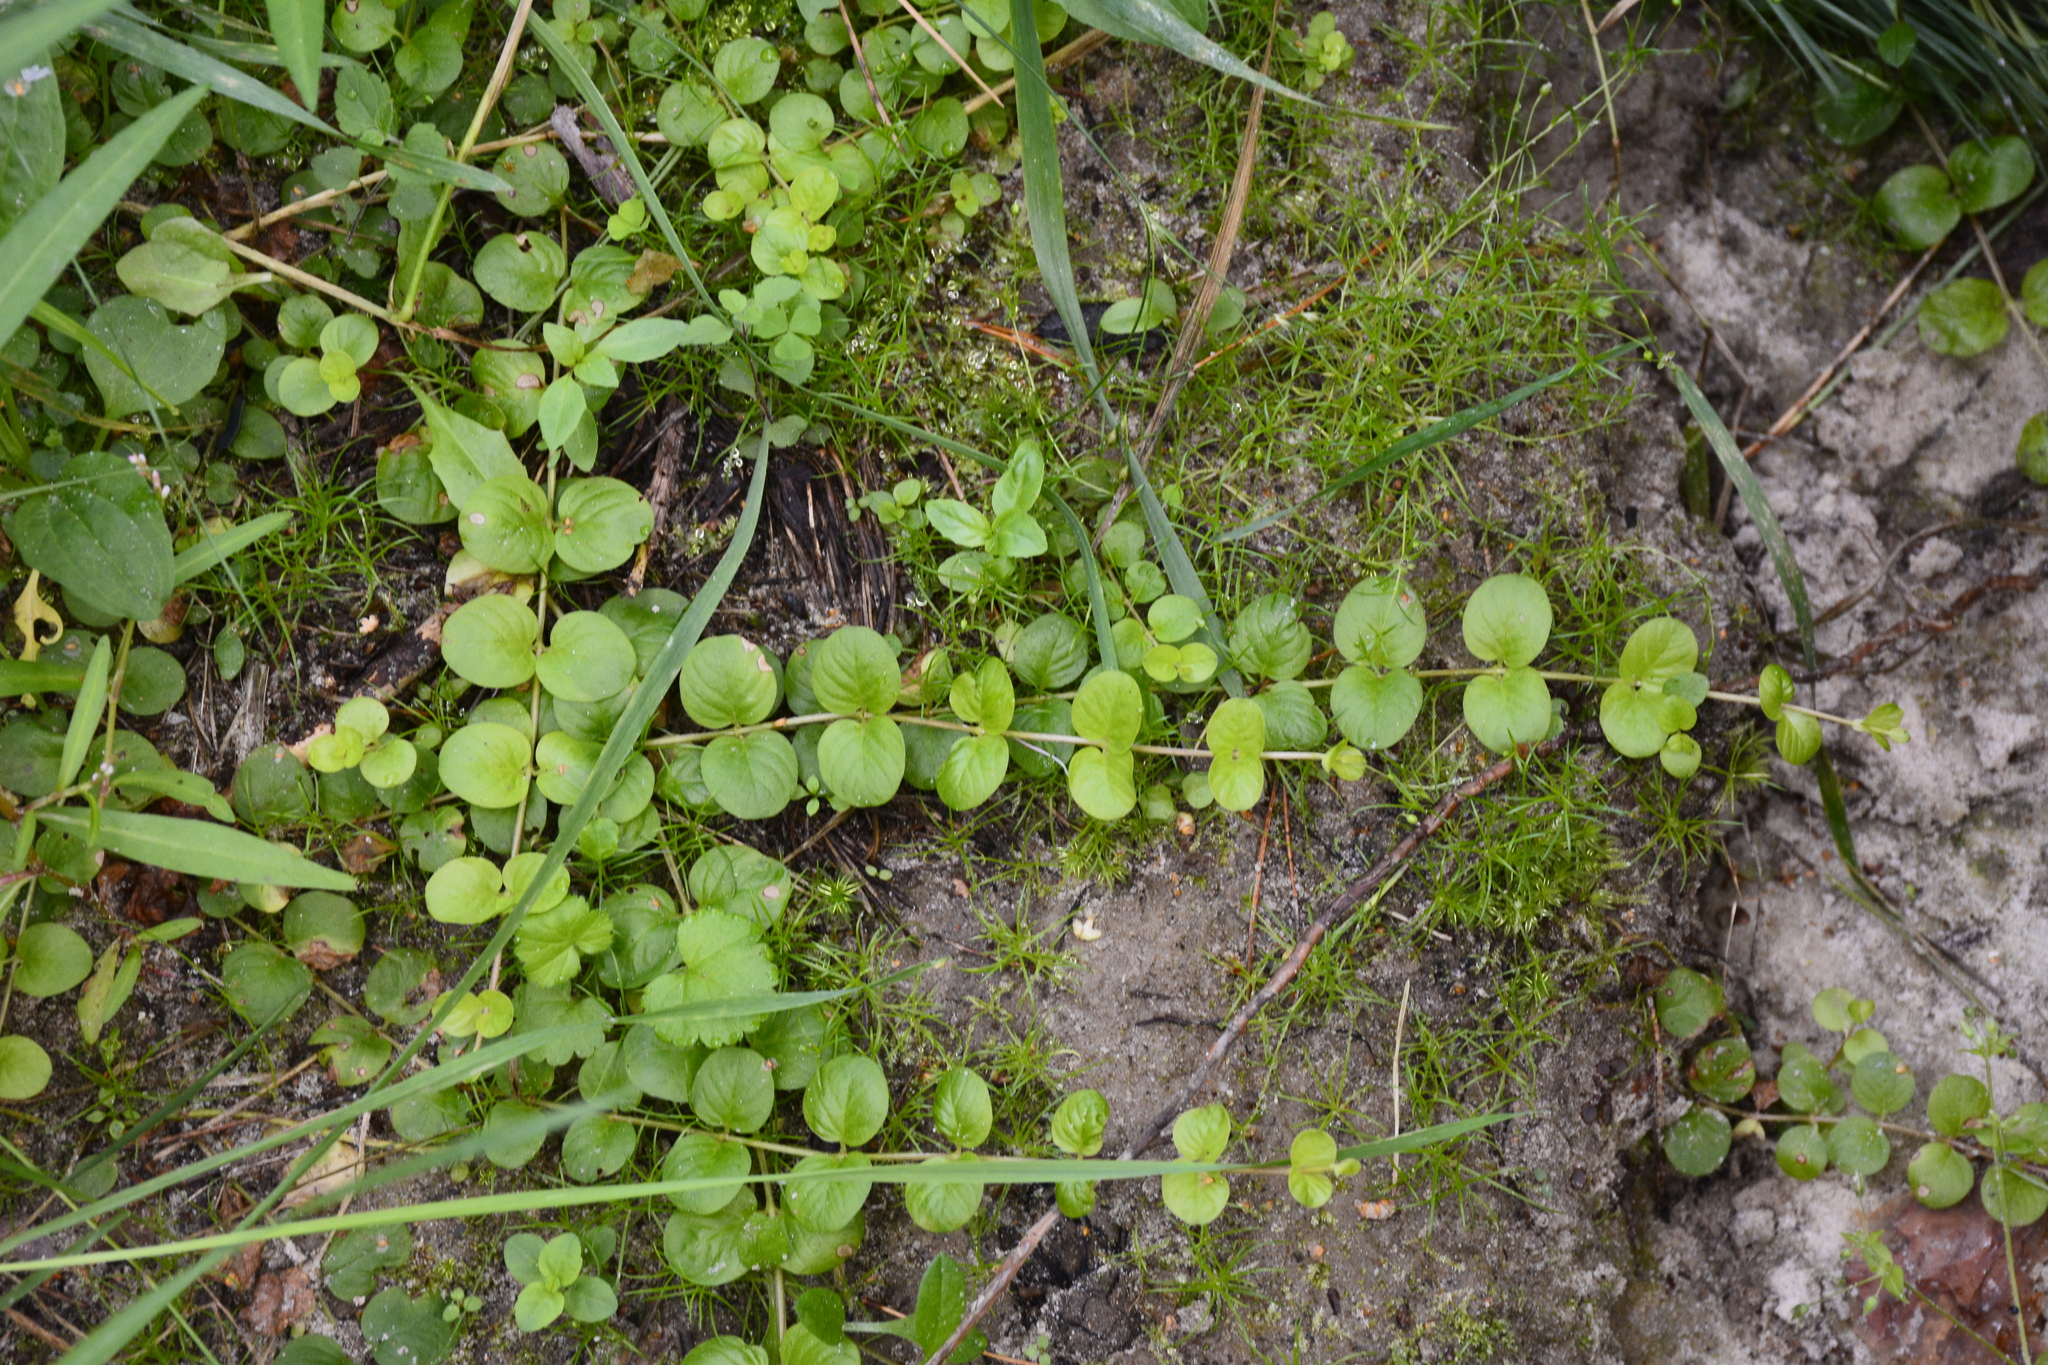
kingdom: Plantae
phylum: Tracheophyta
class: Magnoliopsida
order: Ericales
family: Primulaceae
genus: Lysimachia
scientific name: Lysimachia nummularia
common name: Moneywort
